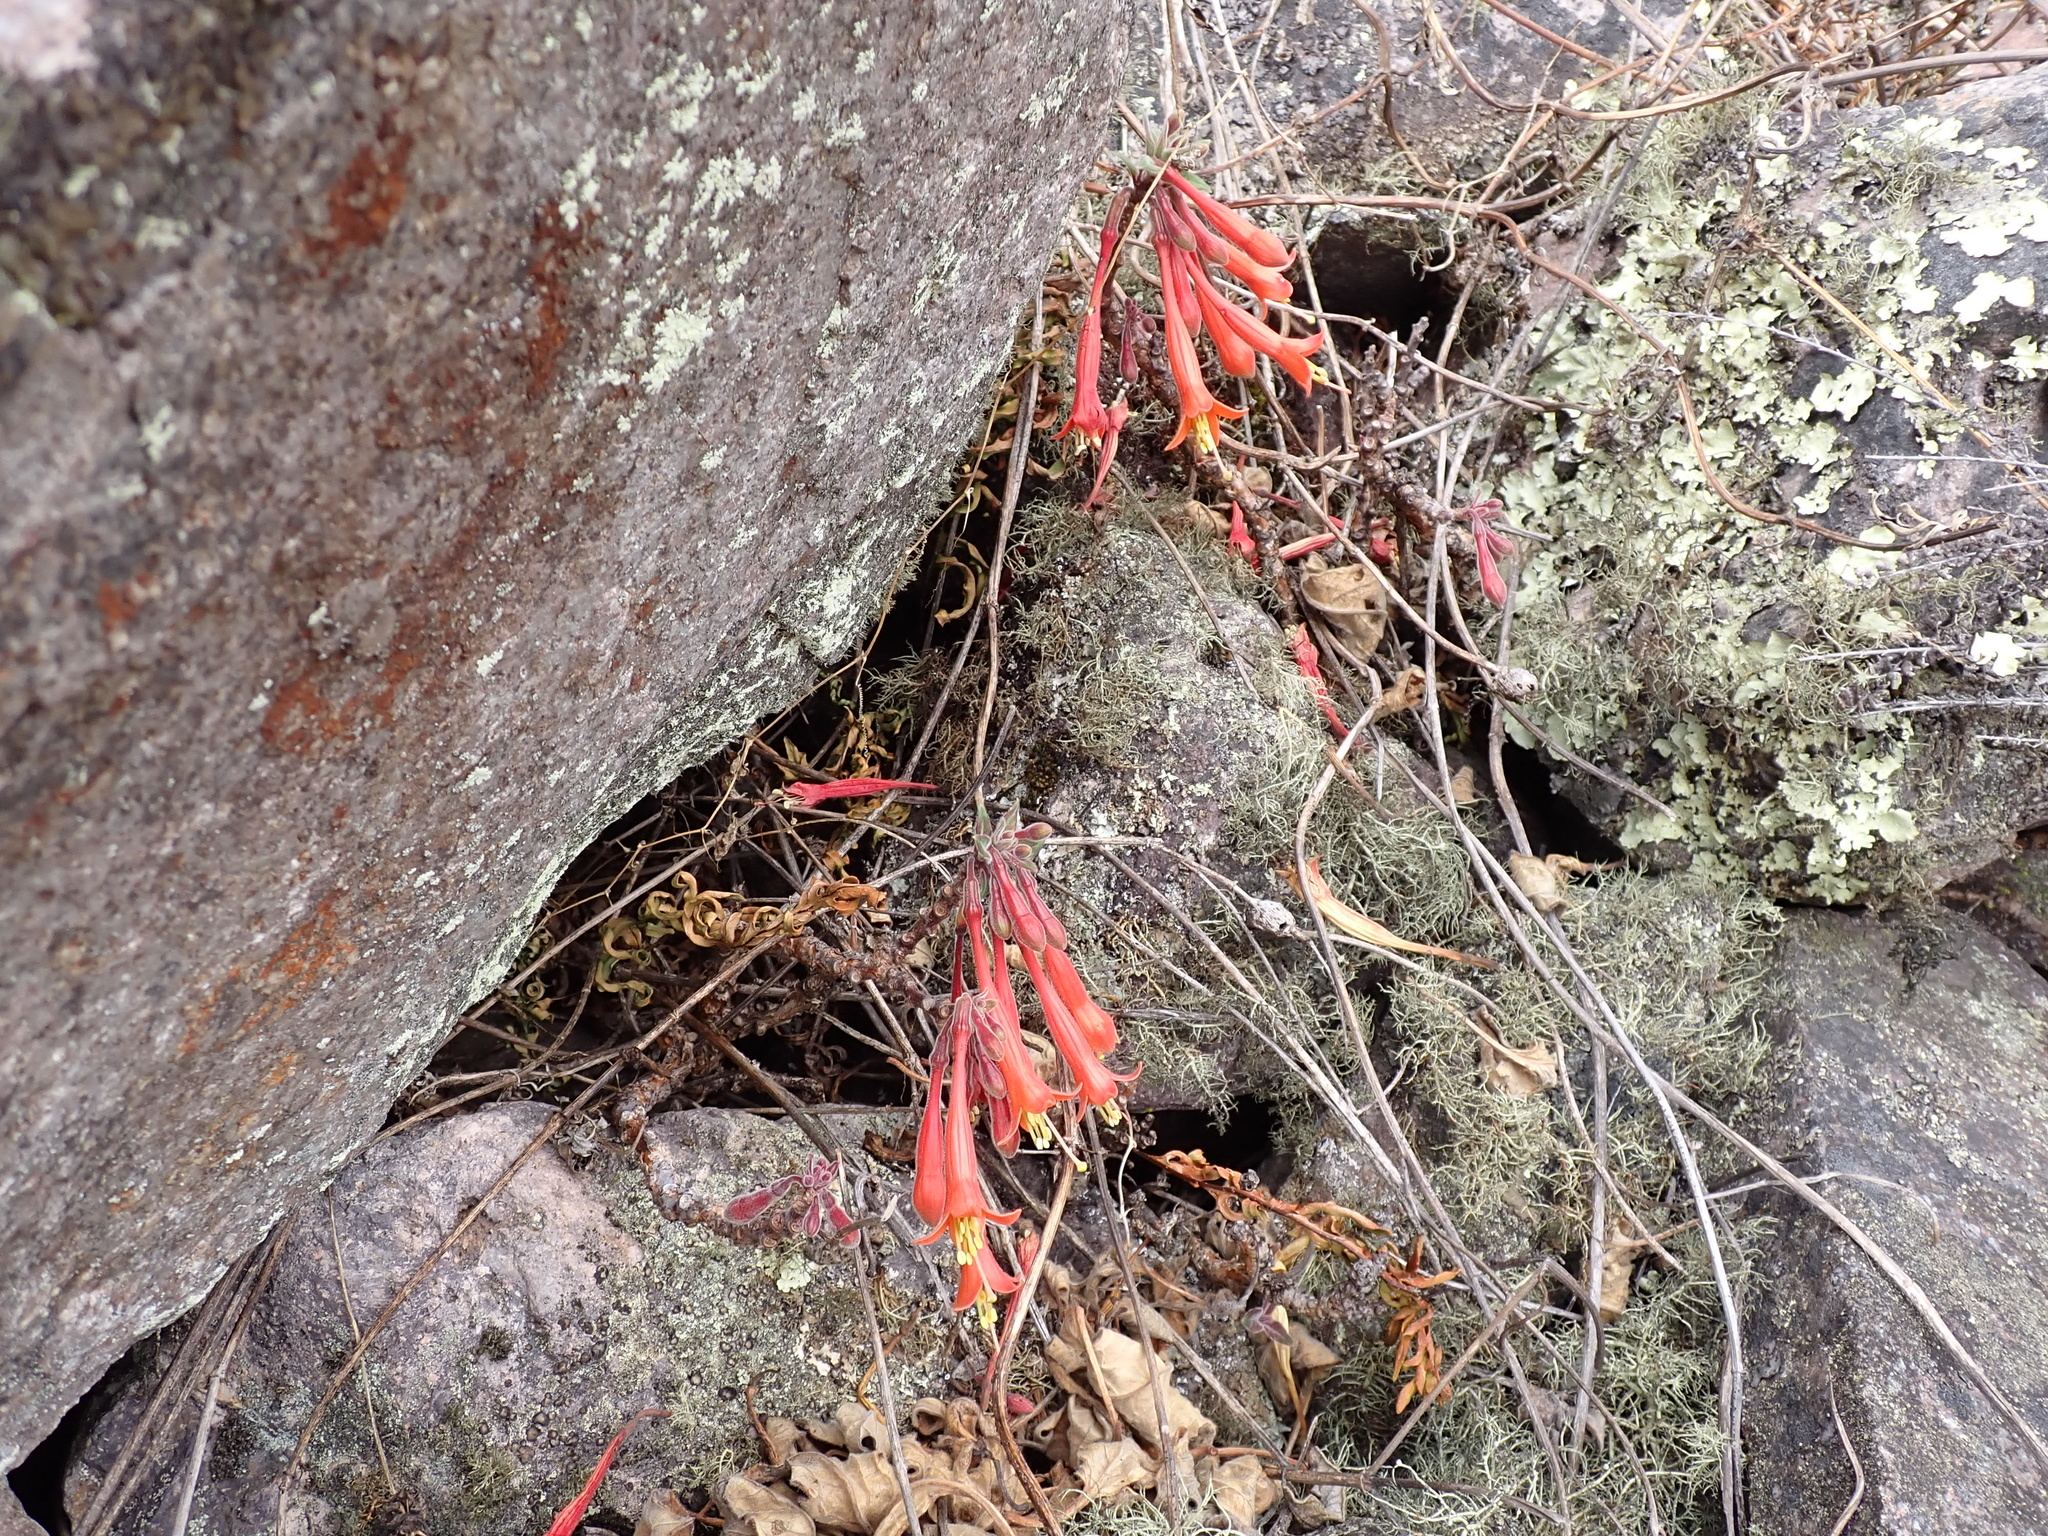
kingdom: Plantae
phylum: Tracheophyta
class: Magnoliopsida
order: Myrtales
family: Onagraceae
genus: Fuchsia
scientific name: Fuchsia apetala
